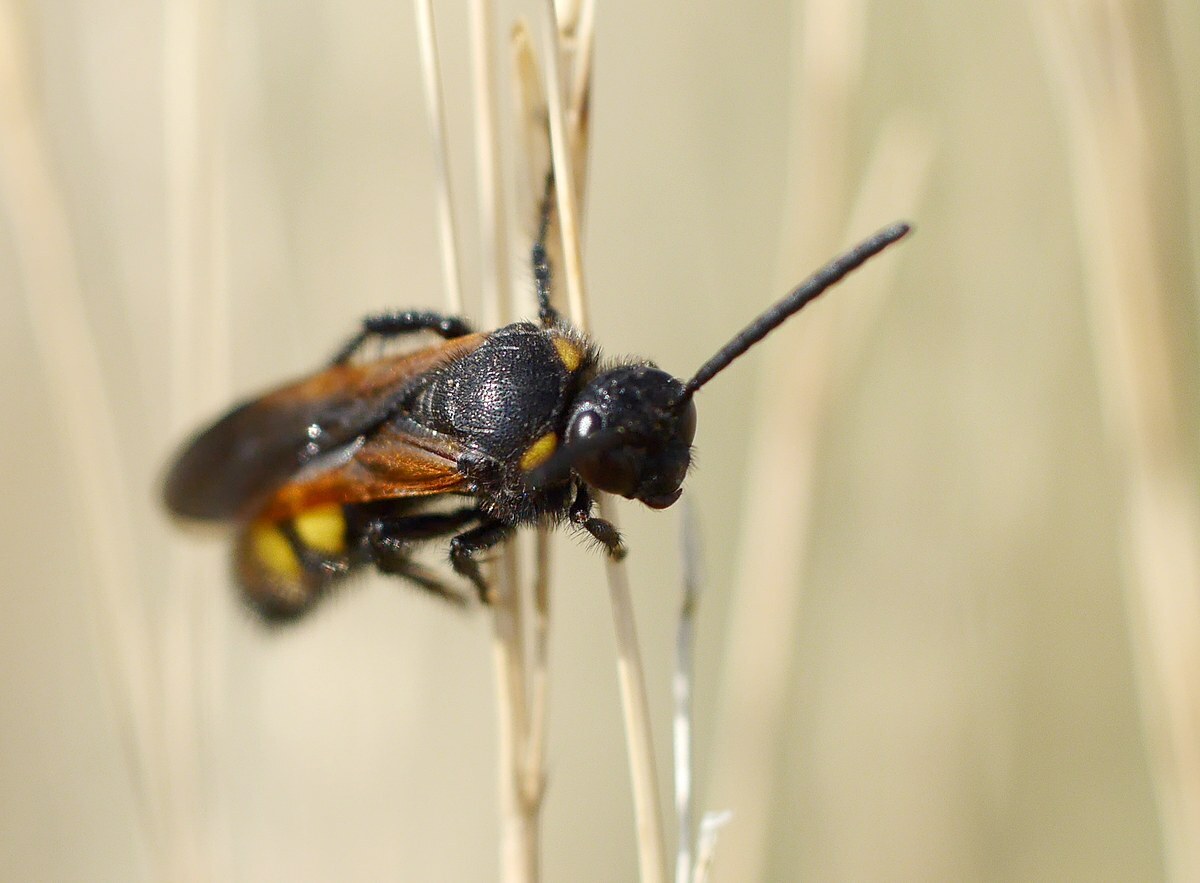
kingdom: Animalia
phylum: Arthropoda
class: Insecta
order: Hymenoptera
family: Scoliidae
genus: Scolia
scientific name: Scolia fuciformis
